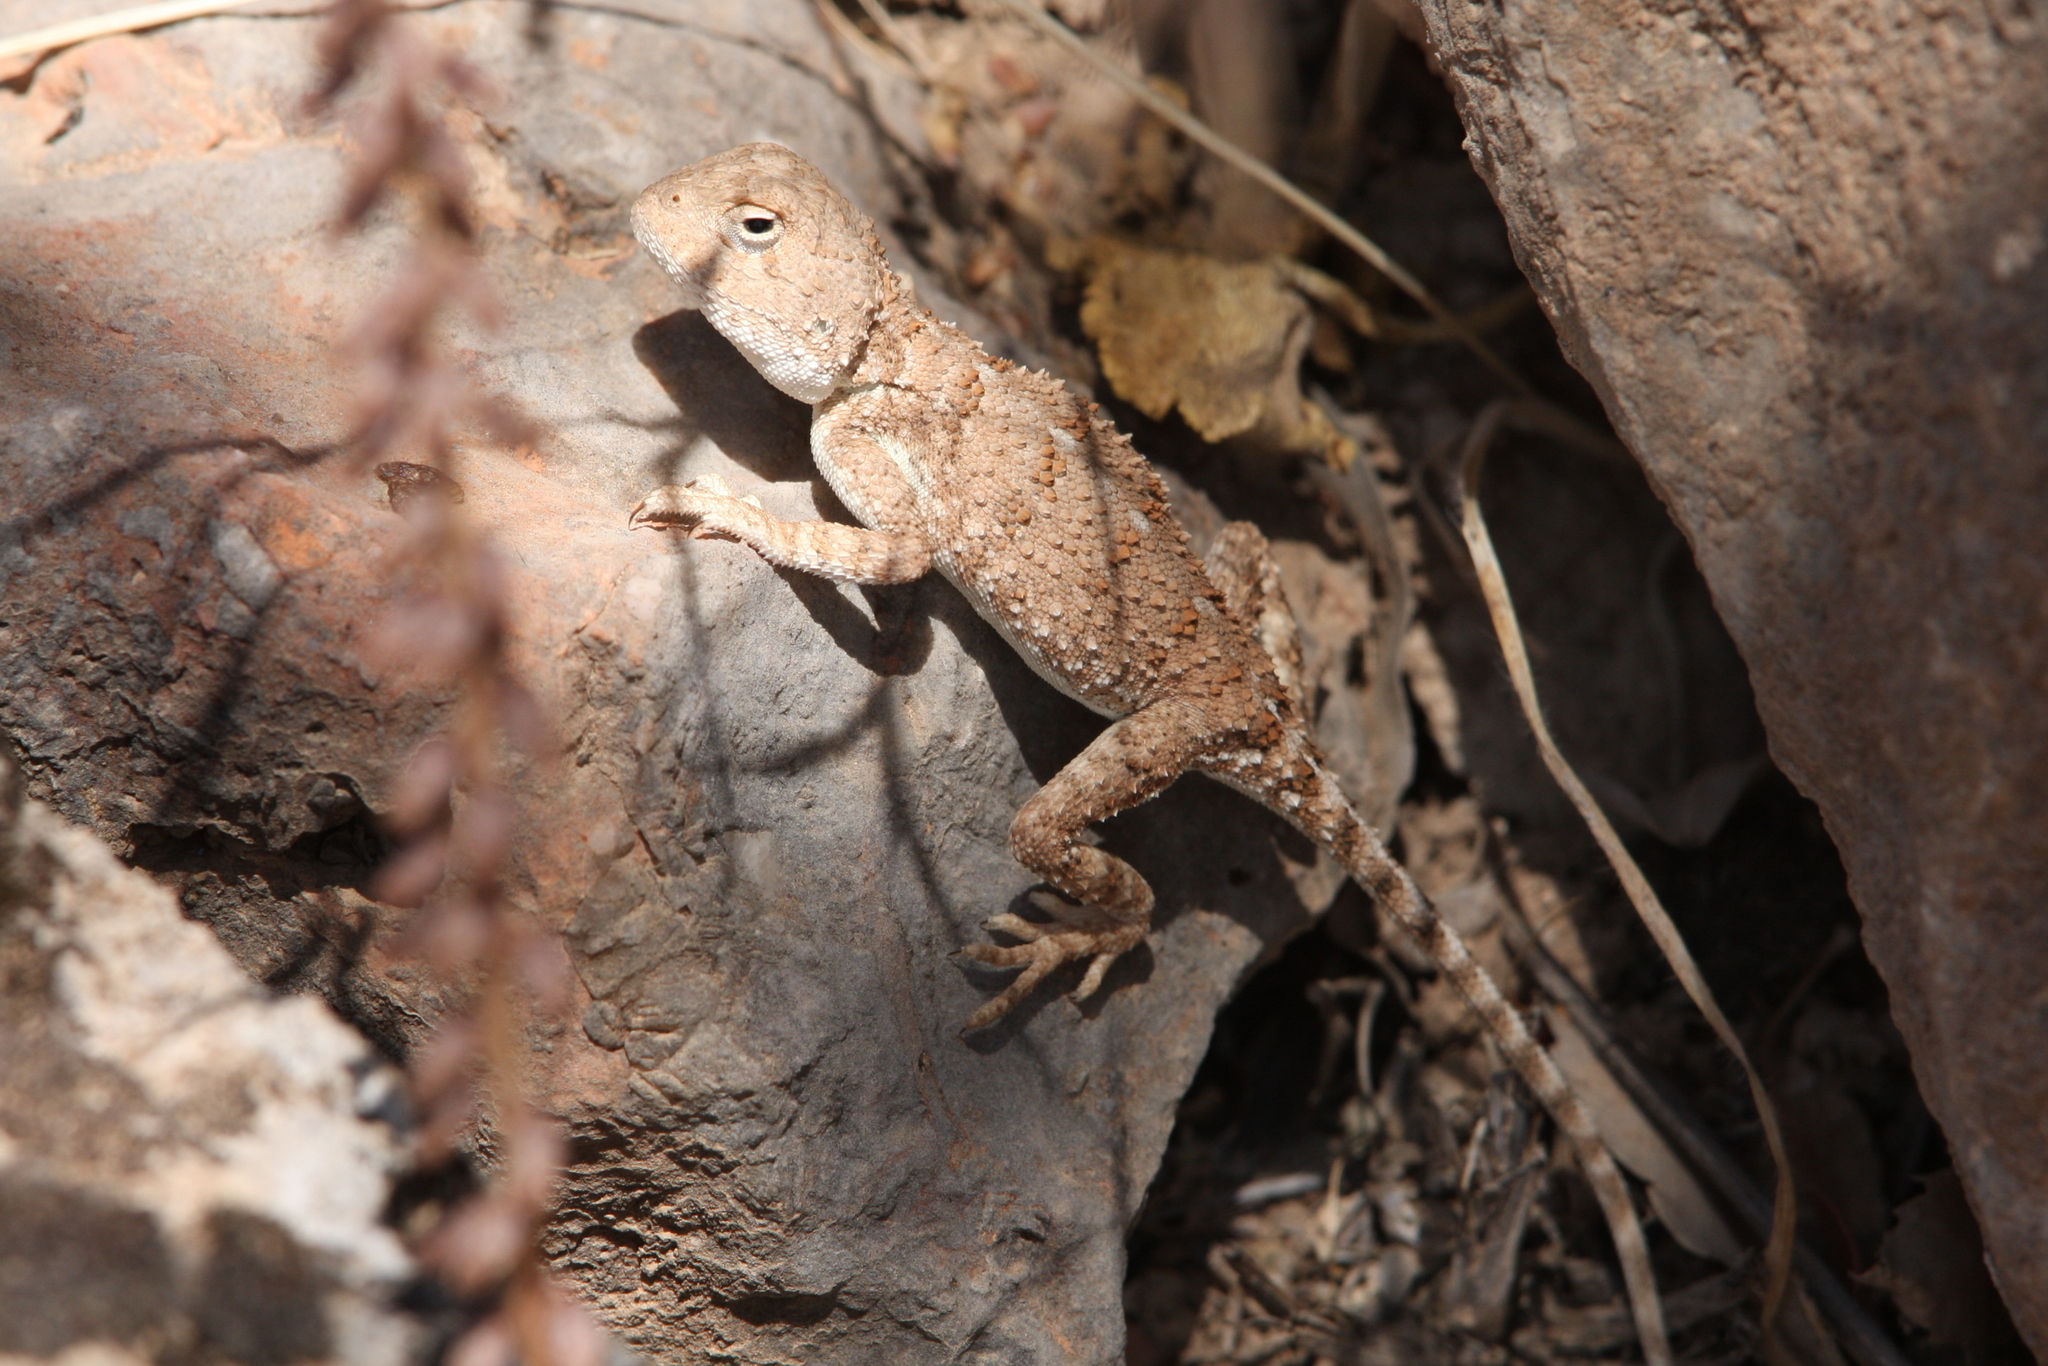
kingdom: Animalia
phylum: Chordata
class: Squamata
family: Agamidae
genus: Trapelus
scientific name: Trapelus ruderatus
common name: Baluch ground agama
